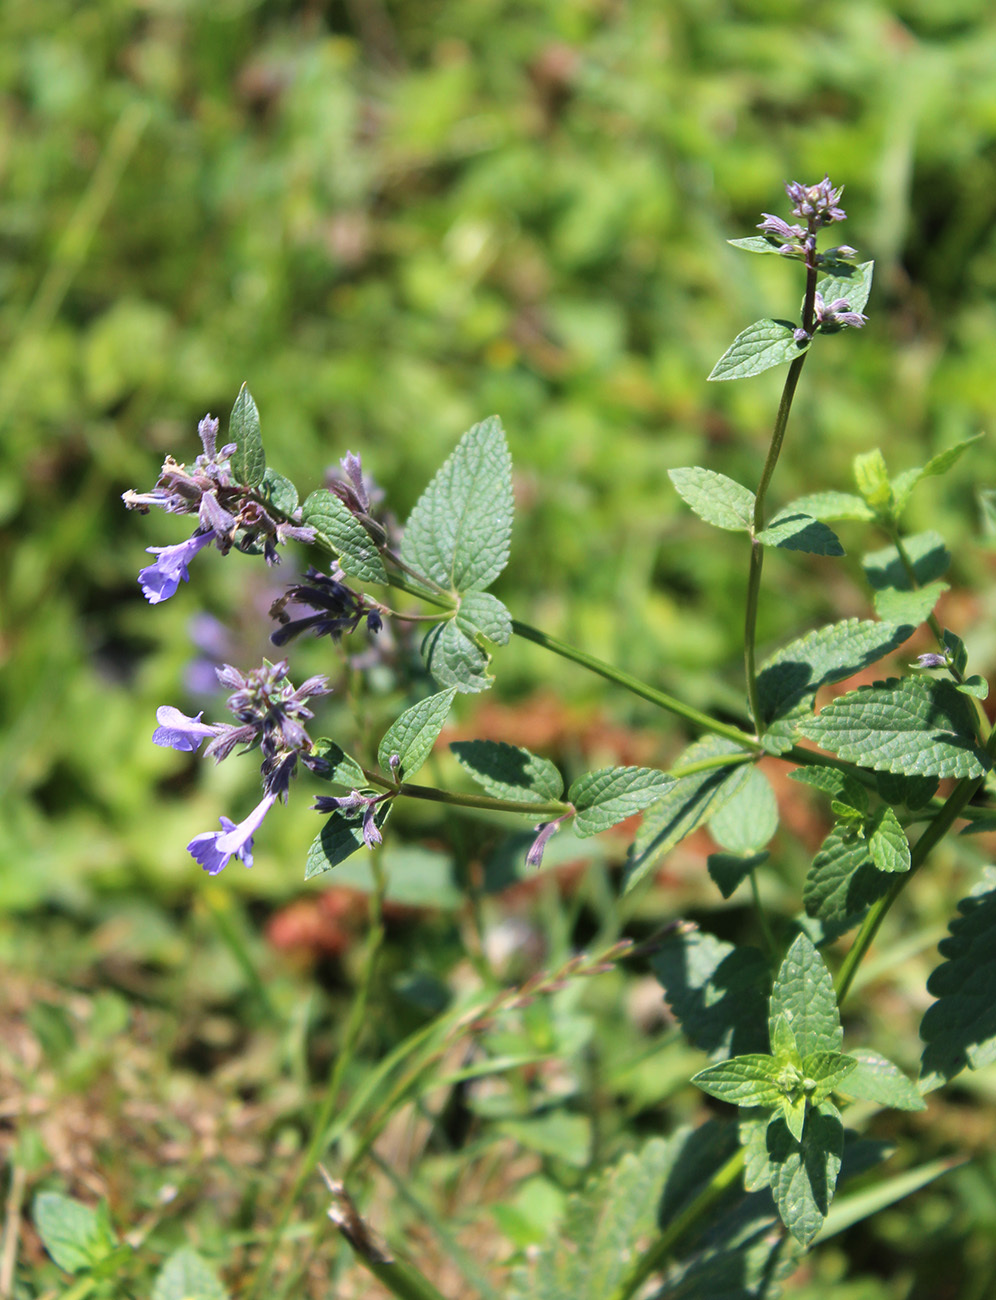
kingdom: Plantae
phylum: Tracheophyta
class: Magnoliopsida
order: Lamiales
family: Lamiaceae
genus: Nepeta
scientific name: Nepeta grandiflora
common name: Caucasus catmint
